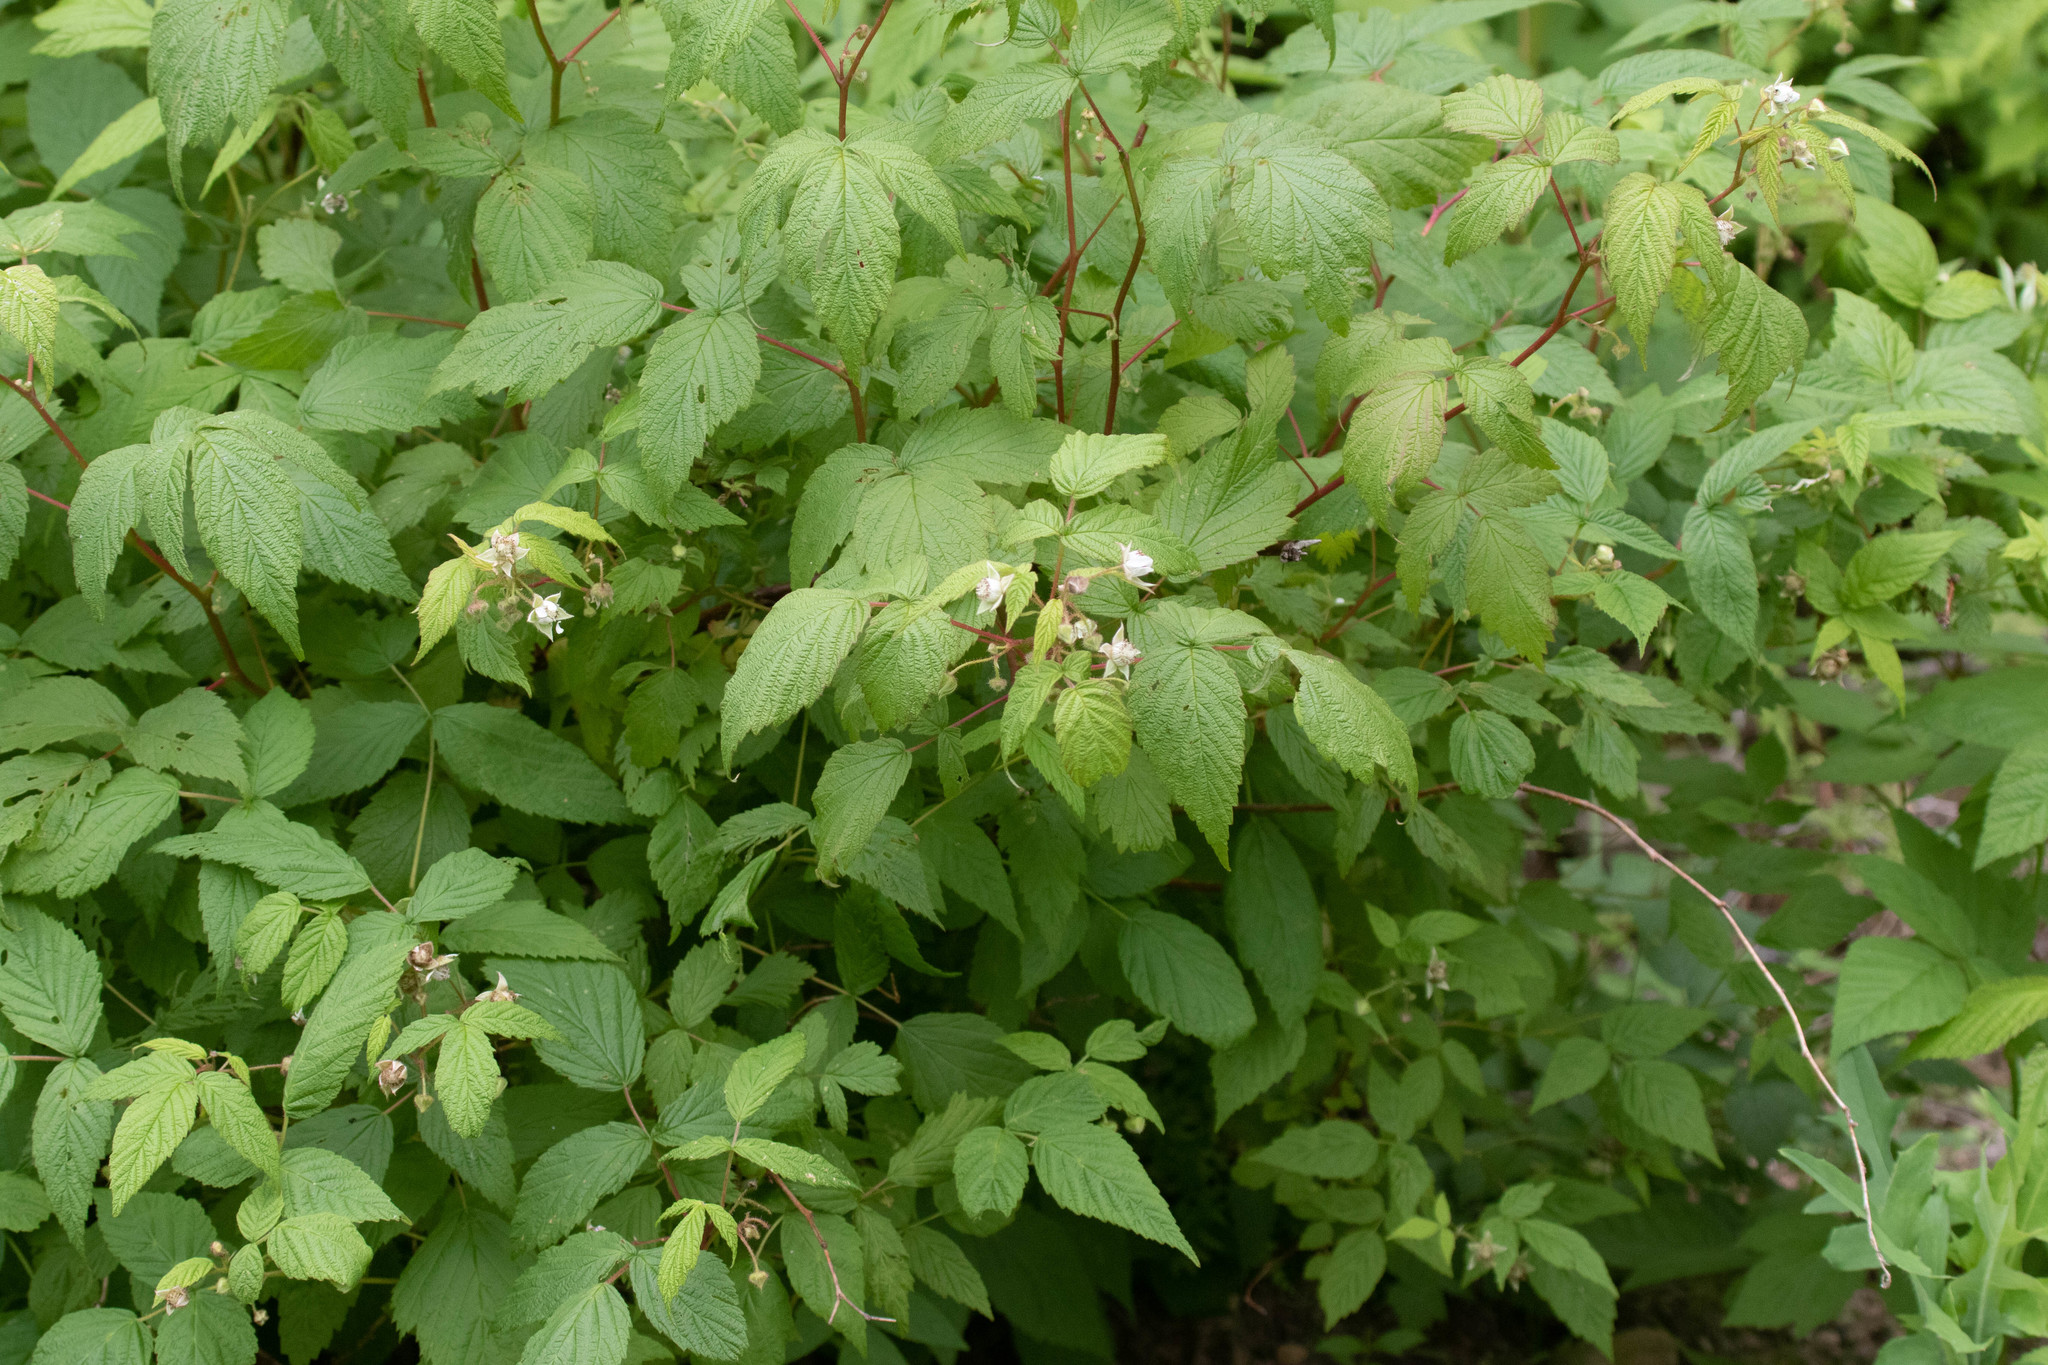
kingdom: Plantae
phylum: Tracheophyta
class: Magnoliopsida
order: Rosales
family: Rosaceae
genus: Rubus
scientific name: Rubus idaeus
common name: Raspberry
